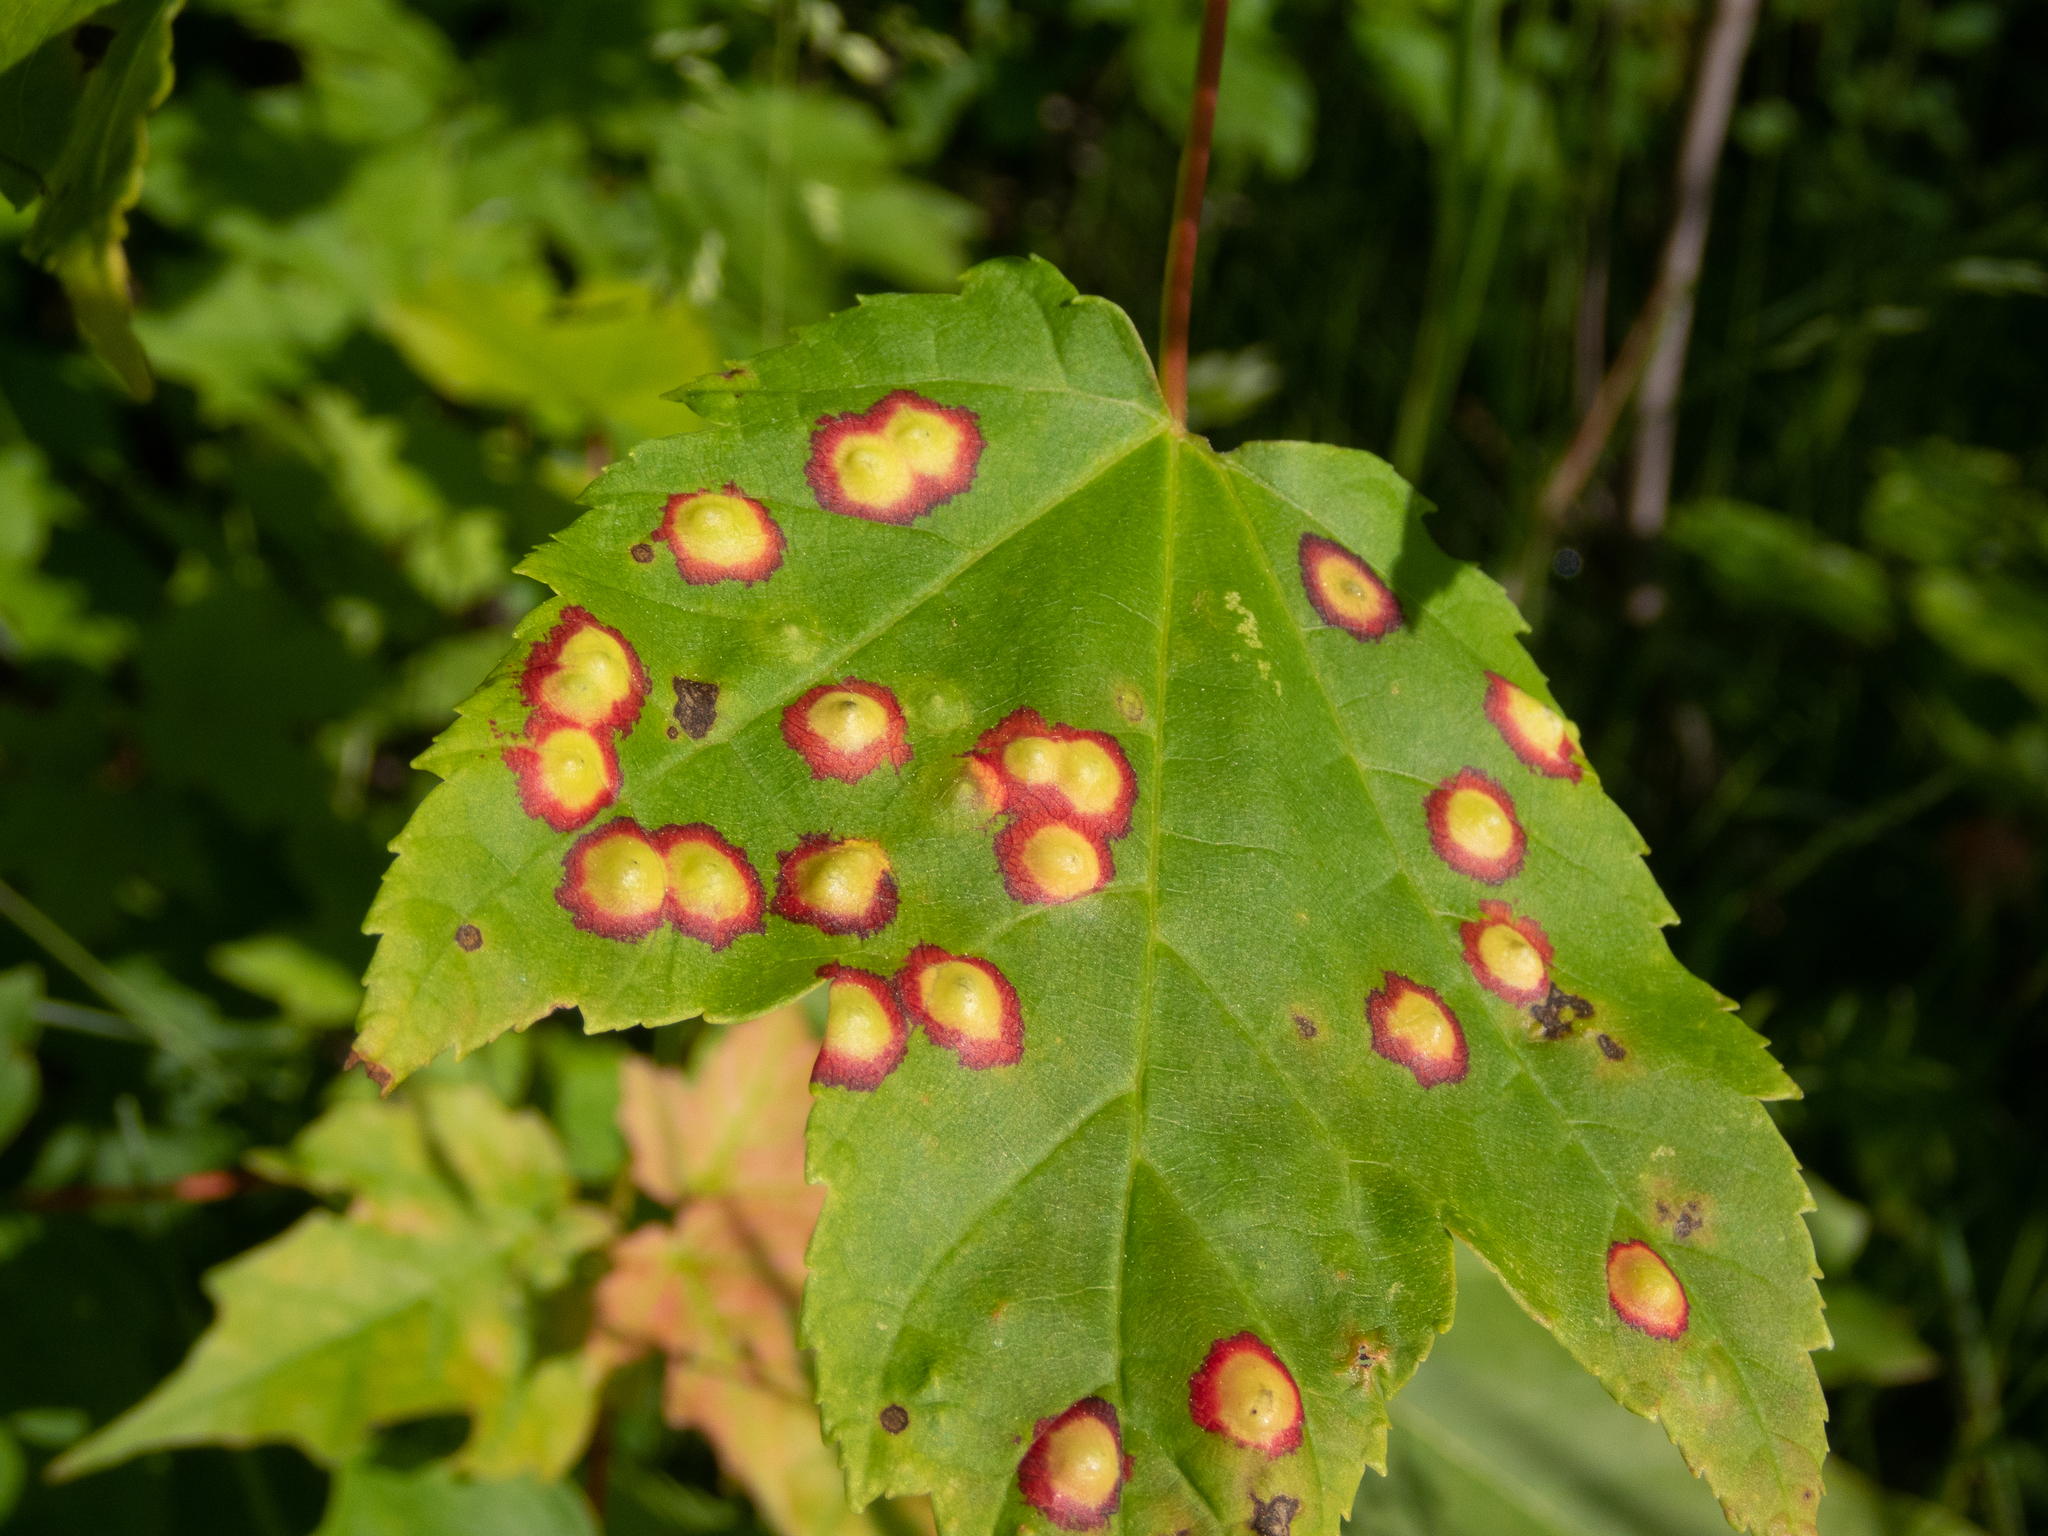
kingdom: Animalia
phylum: Arthropoda
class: Insecta
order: Diptera
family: Cecidomyiidae
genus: Acericecis
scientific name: Acericecis ocellaris
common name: Ocellate gall midge
